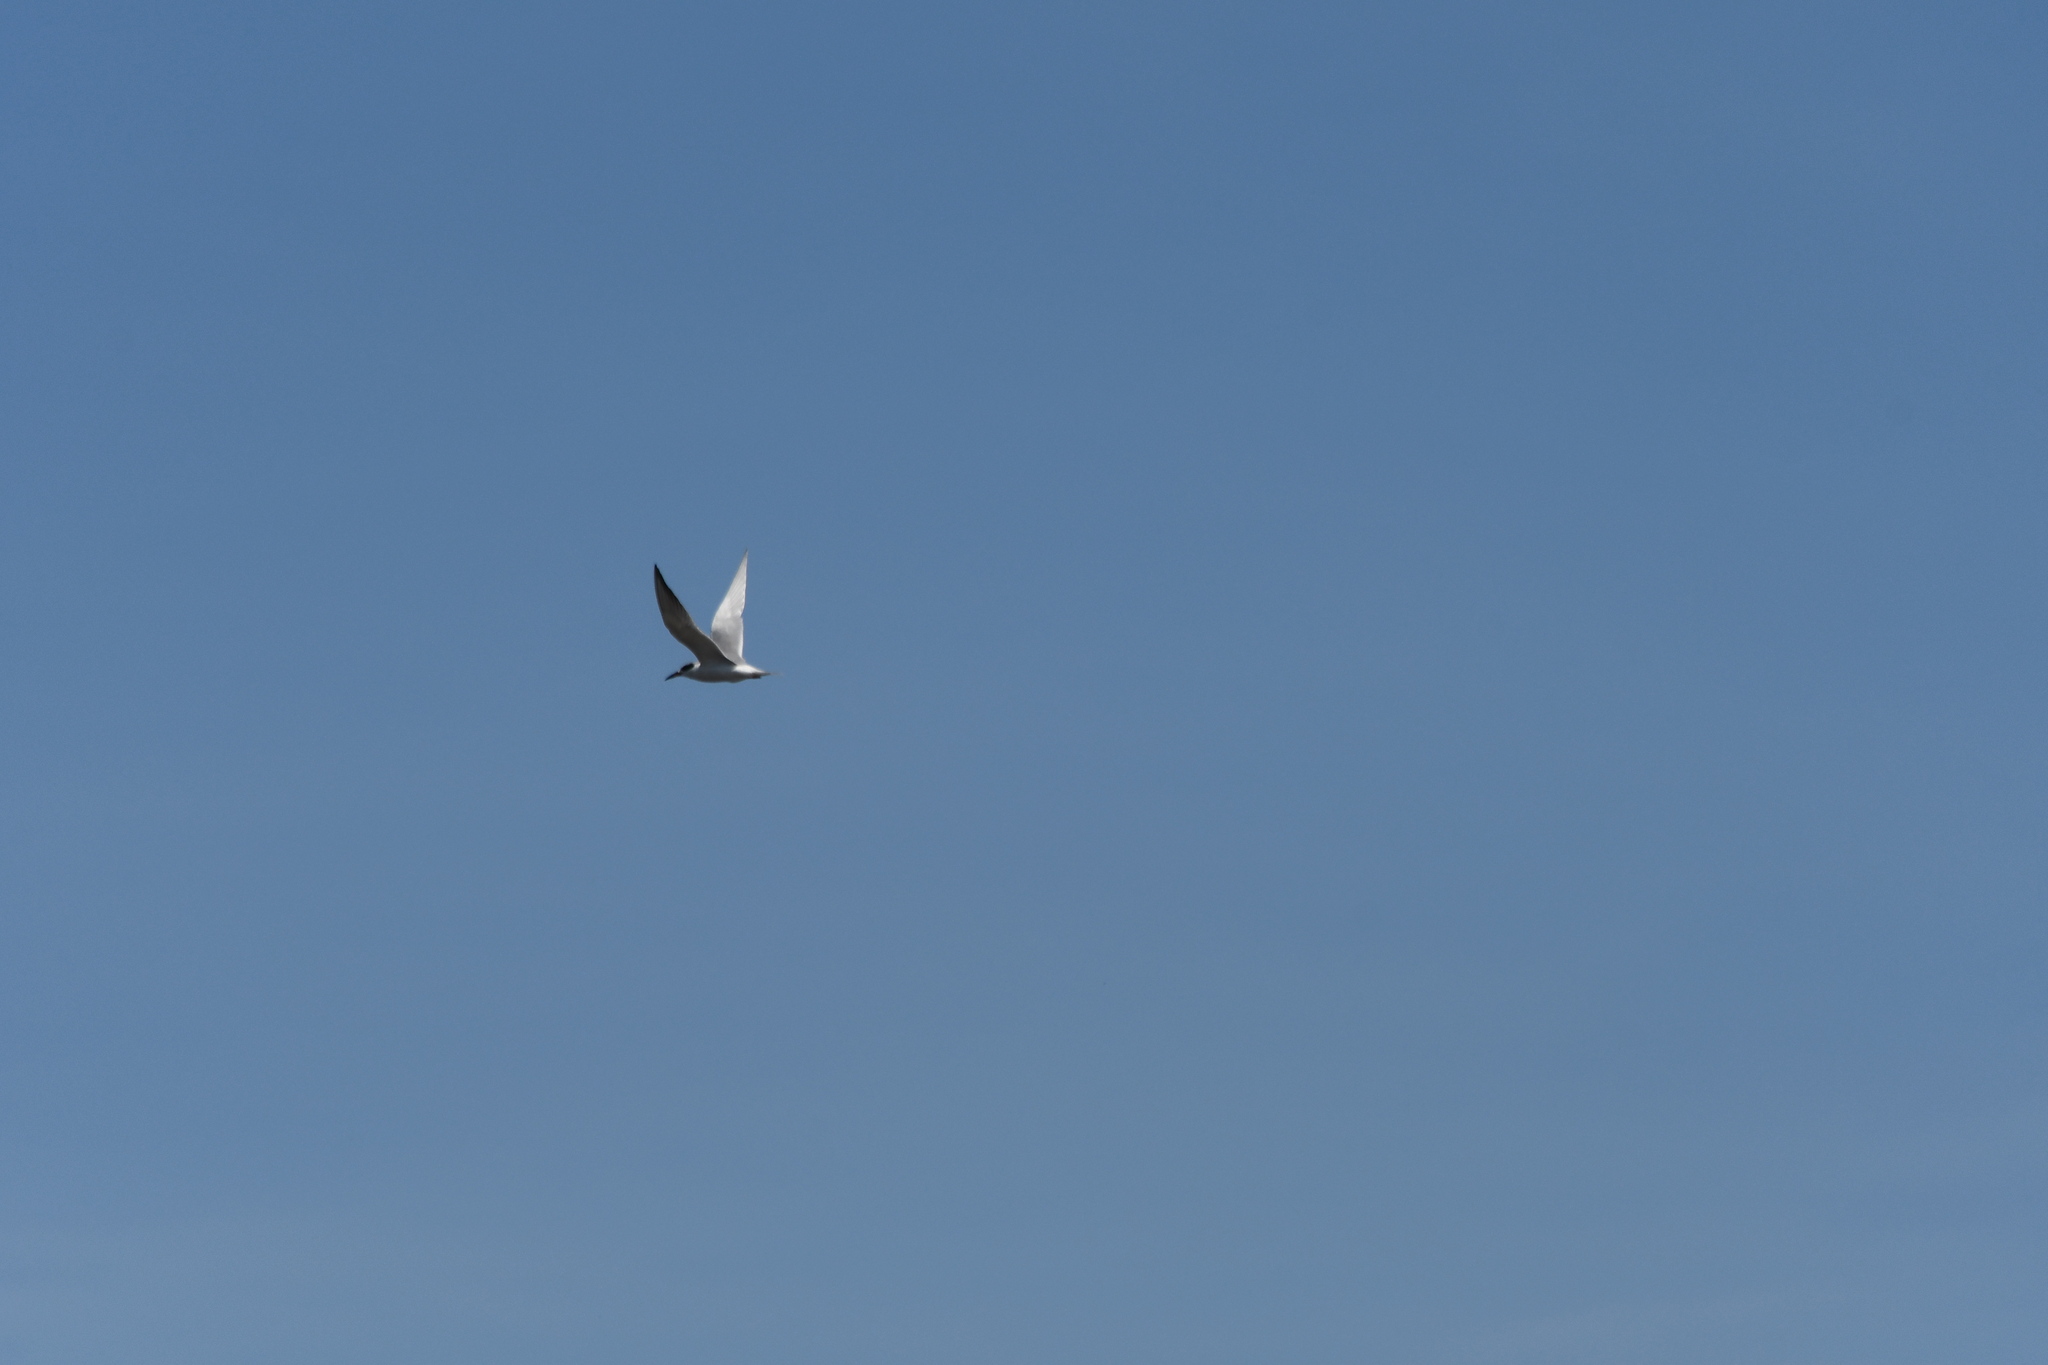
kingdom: Animalia
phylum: Chordata
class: Aves
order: Charadriiformes
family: Laridae
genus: Sterna
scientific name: Sterna forsteri
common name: Forster's tern
